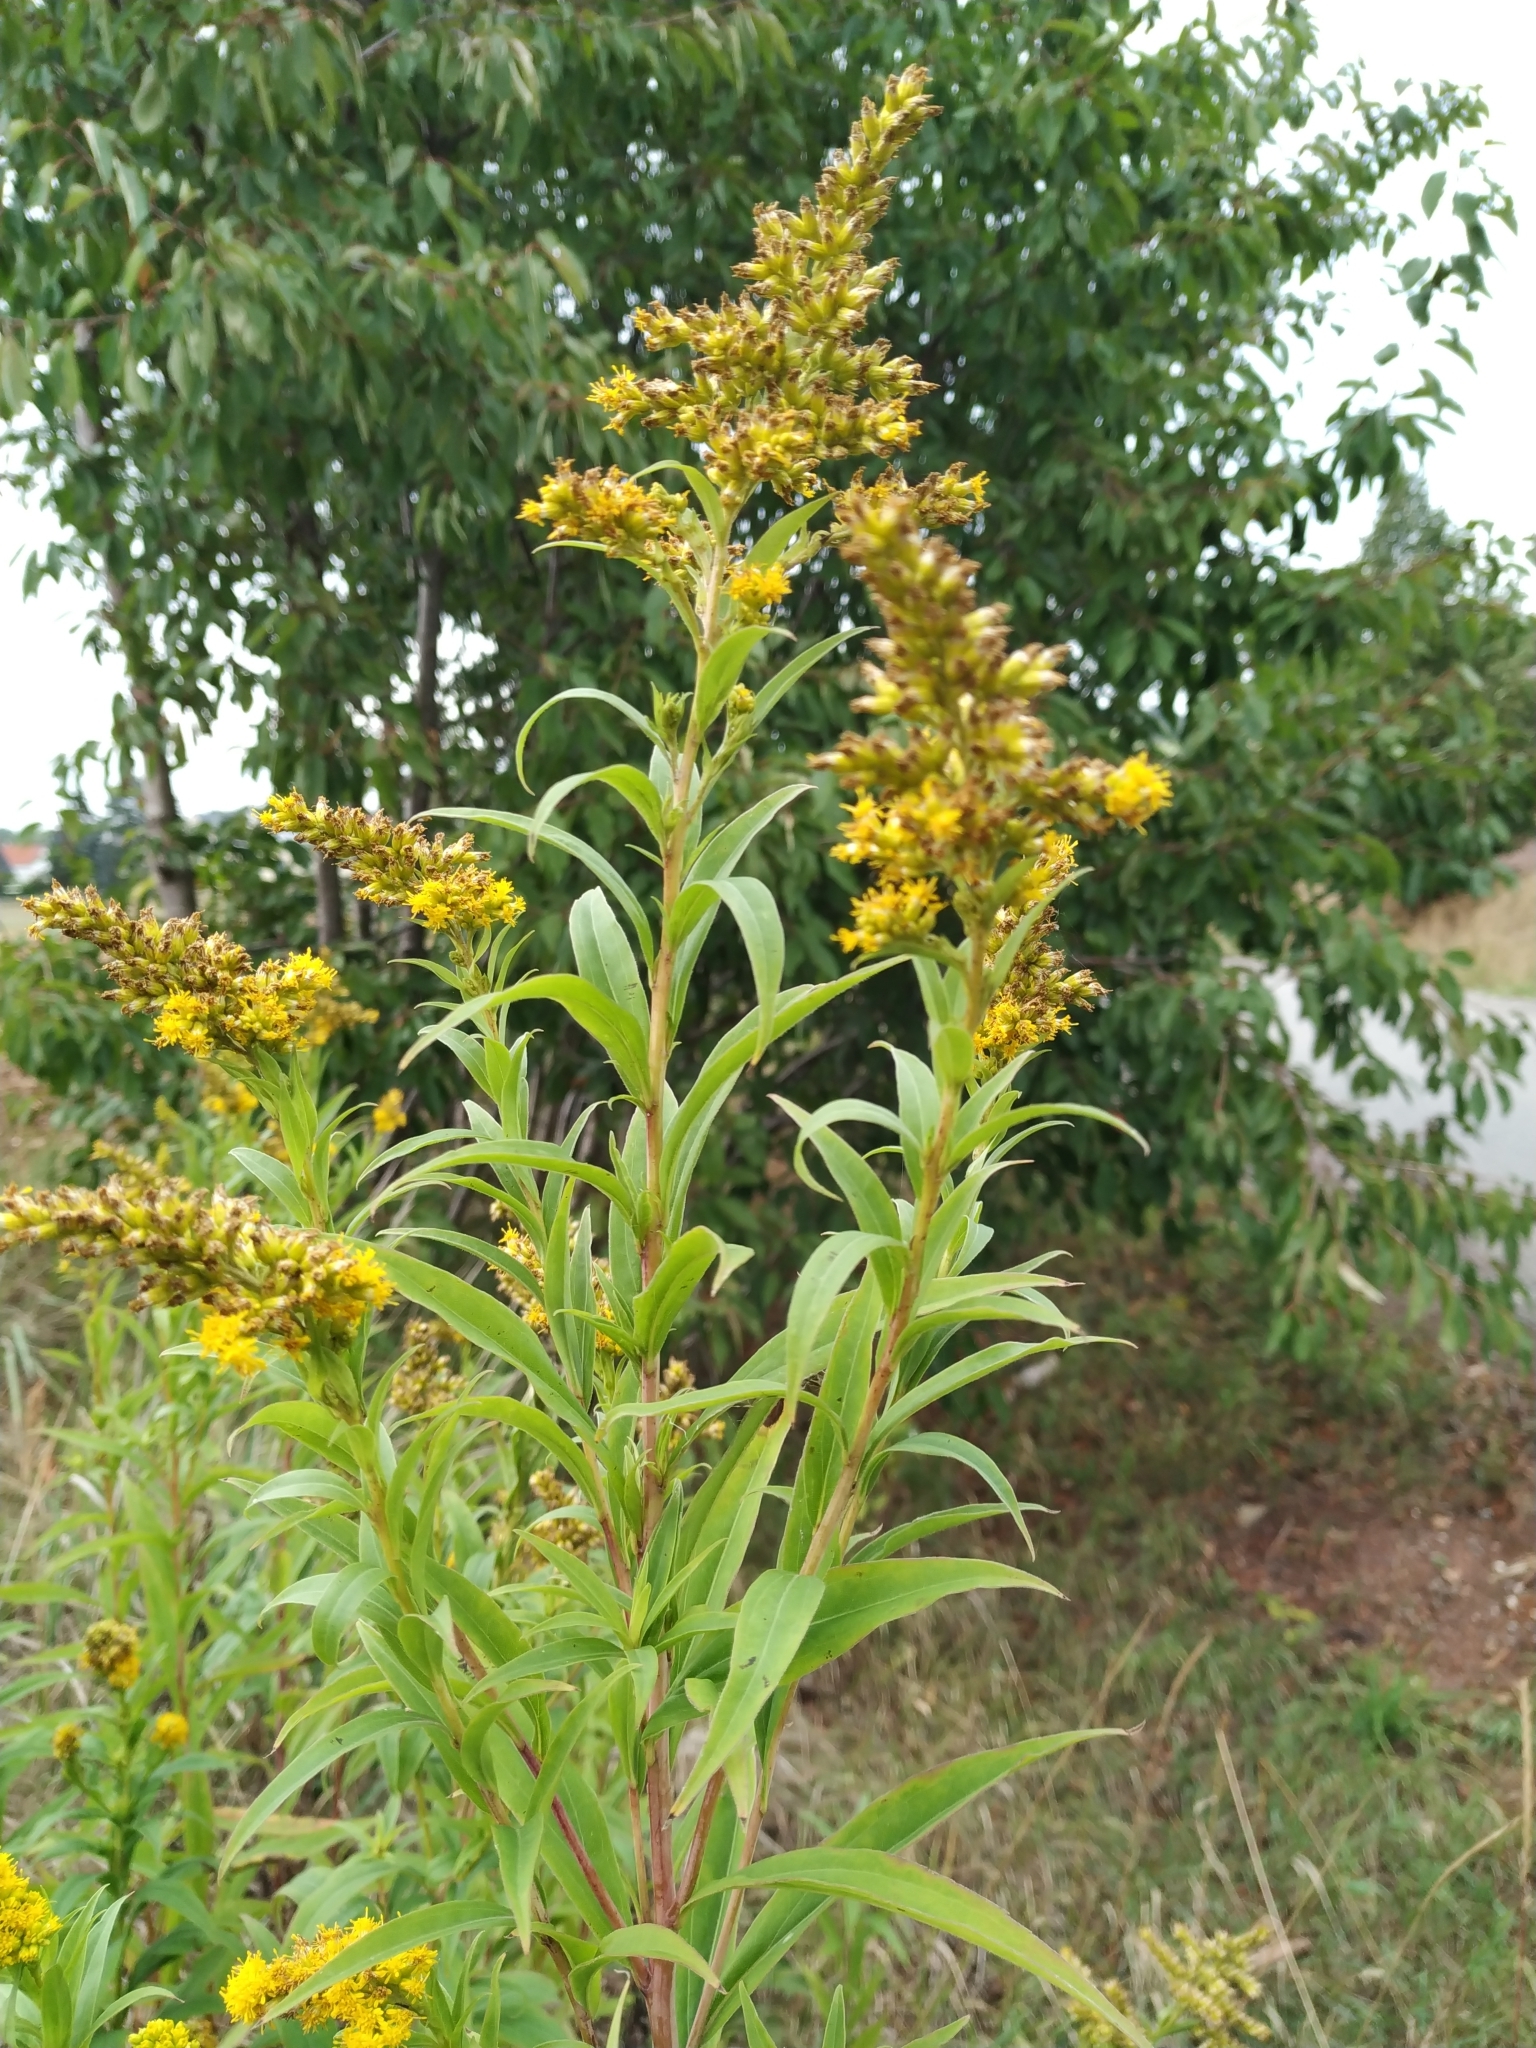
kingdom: Plantae
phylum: Tracheophyta
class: Magnoliopsida
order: Asterales
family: Asteraceae
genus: Solidago
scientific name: Solidago gigantea
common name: Giant goldenrod
